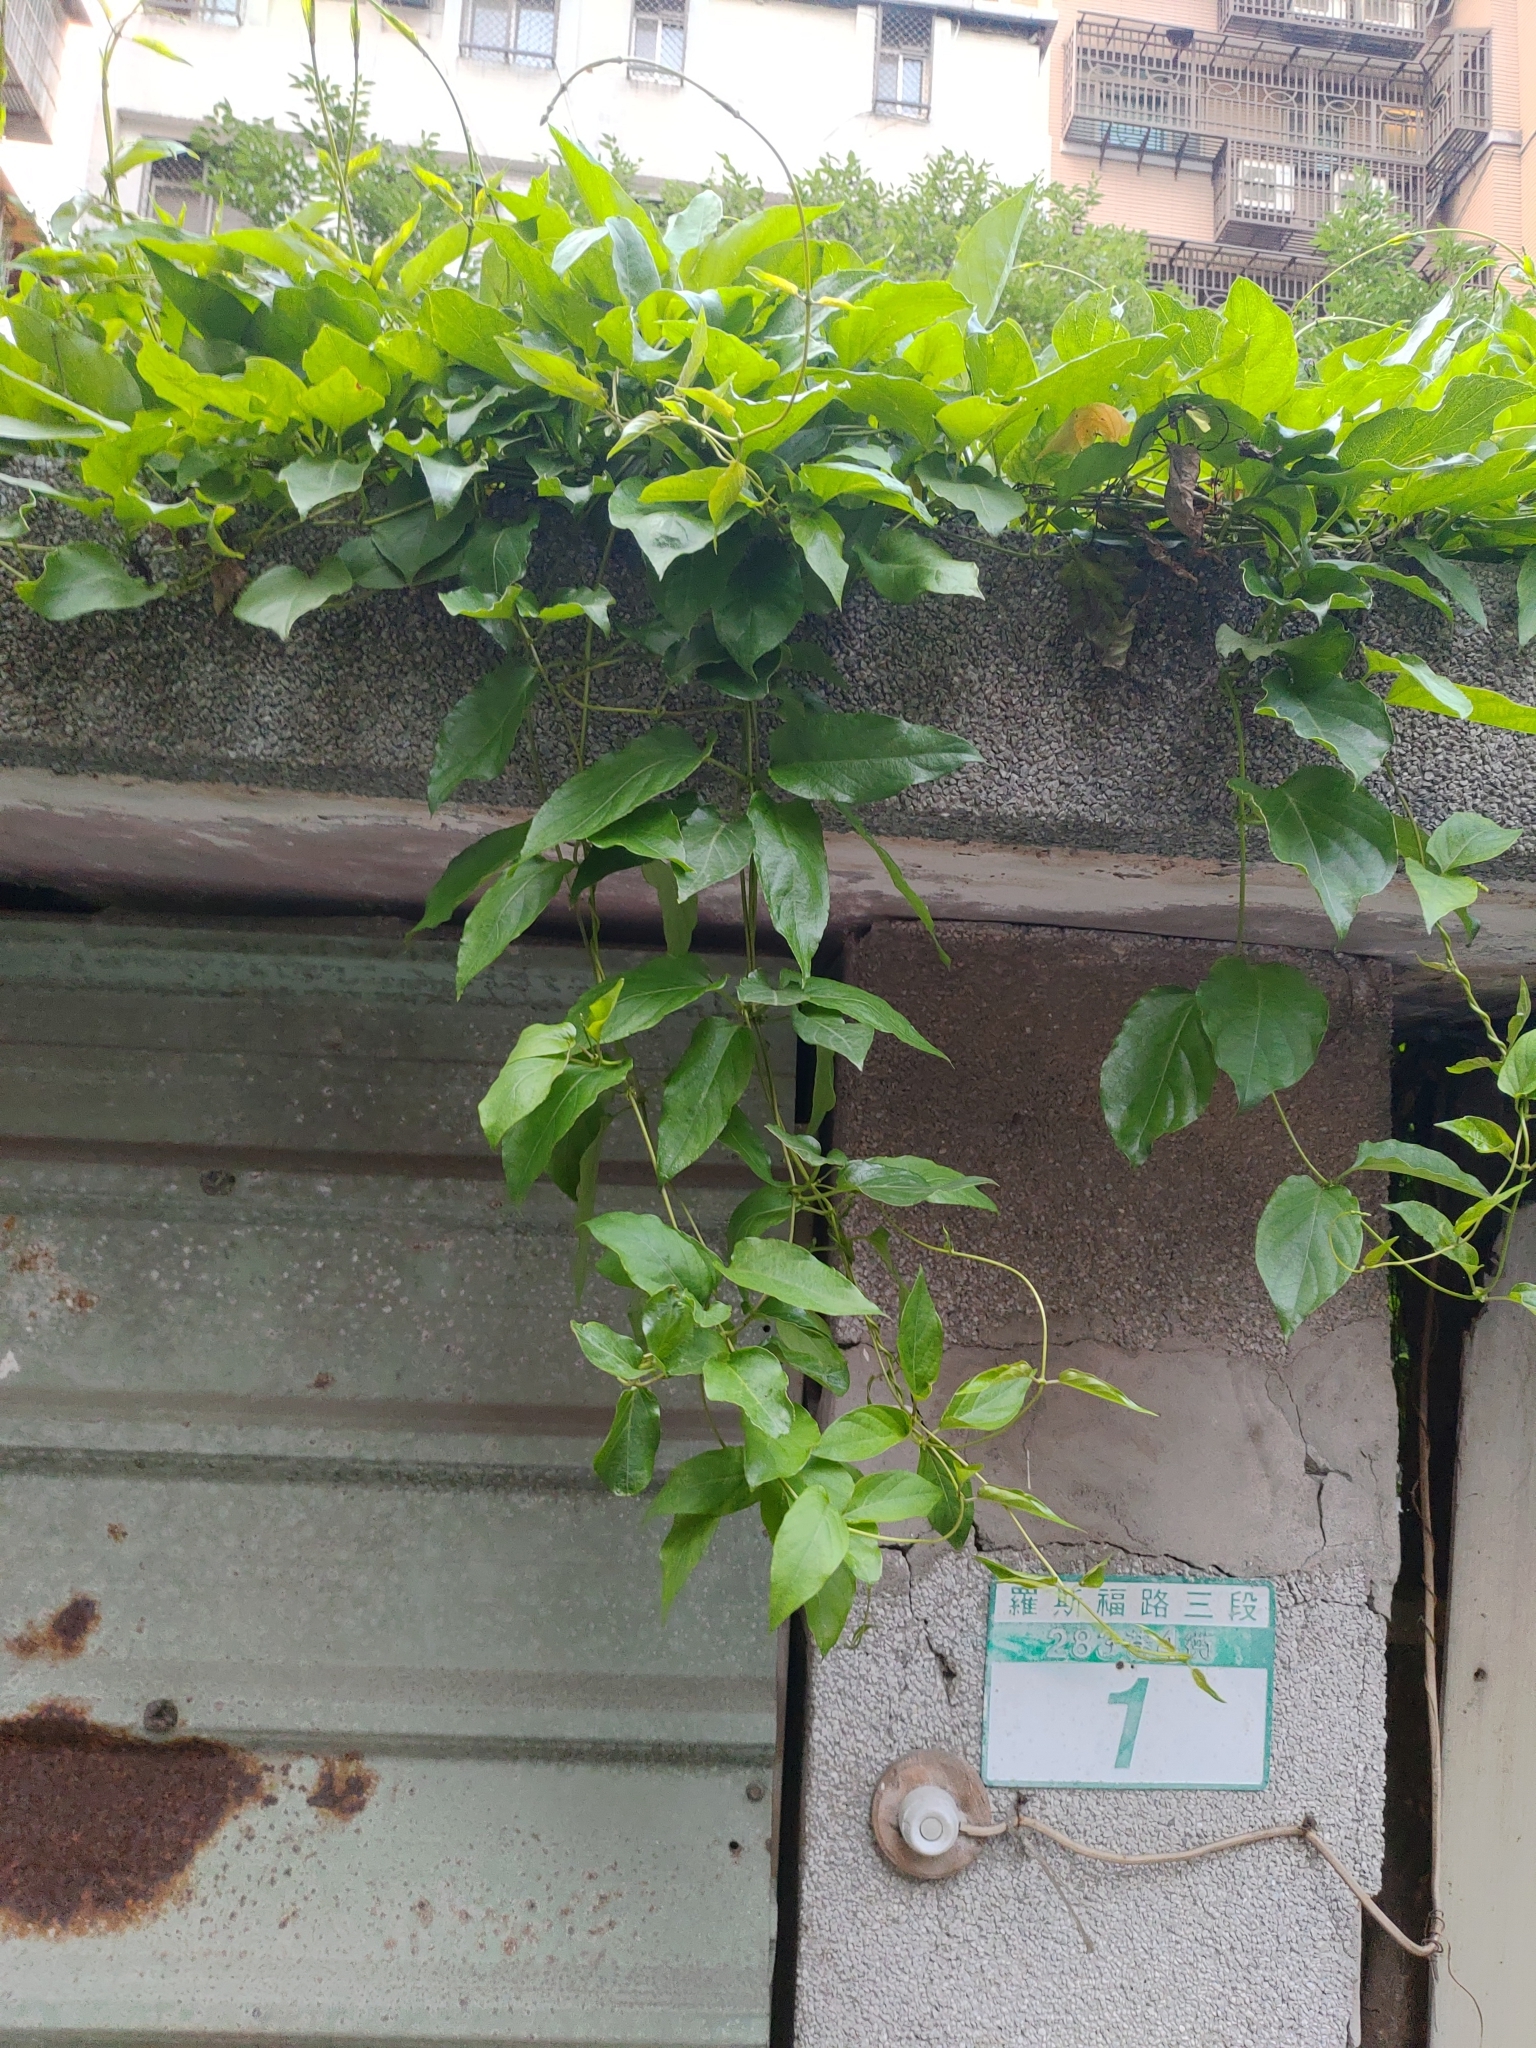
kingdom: Plantae
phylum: Tracheophyta
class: Magnoliopsida
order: Gentianales
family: Rubiaceae
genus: Paederia
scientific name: Paederia foetida
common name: Stinkvine
